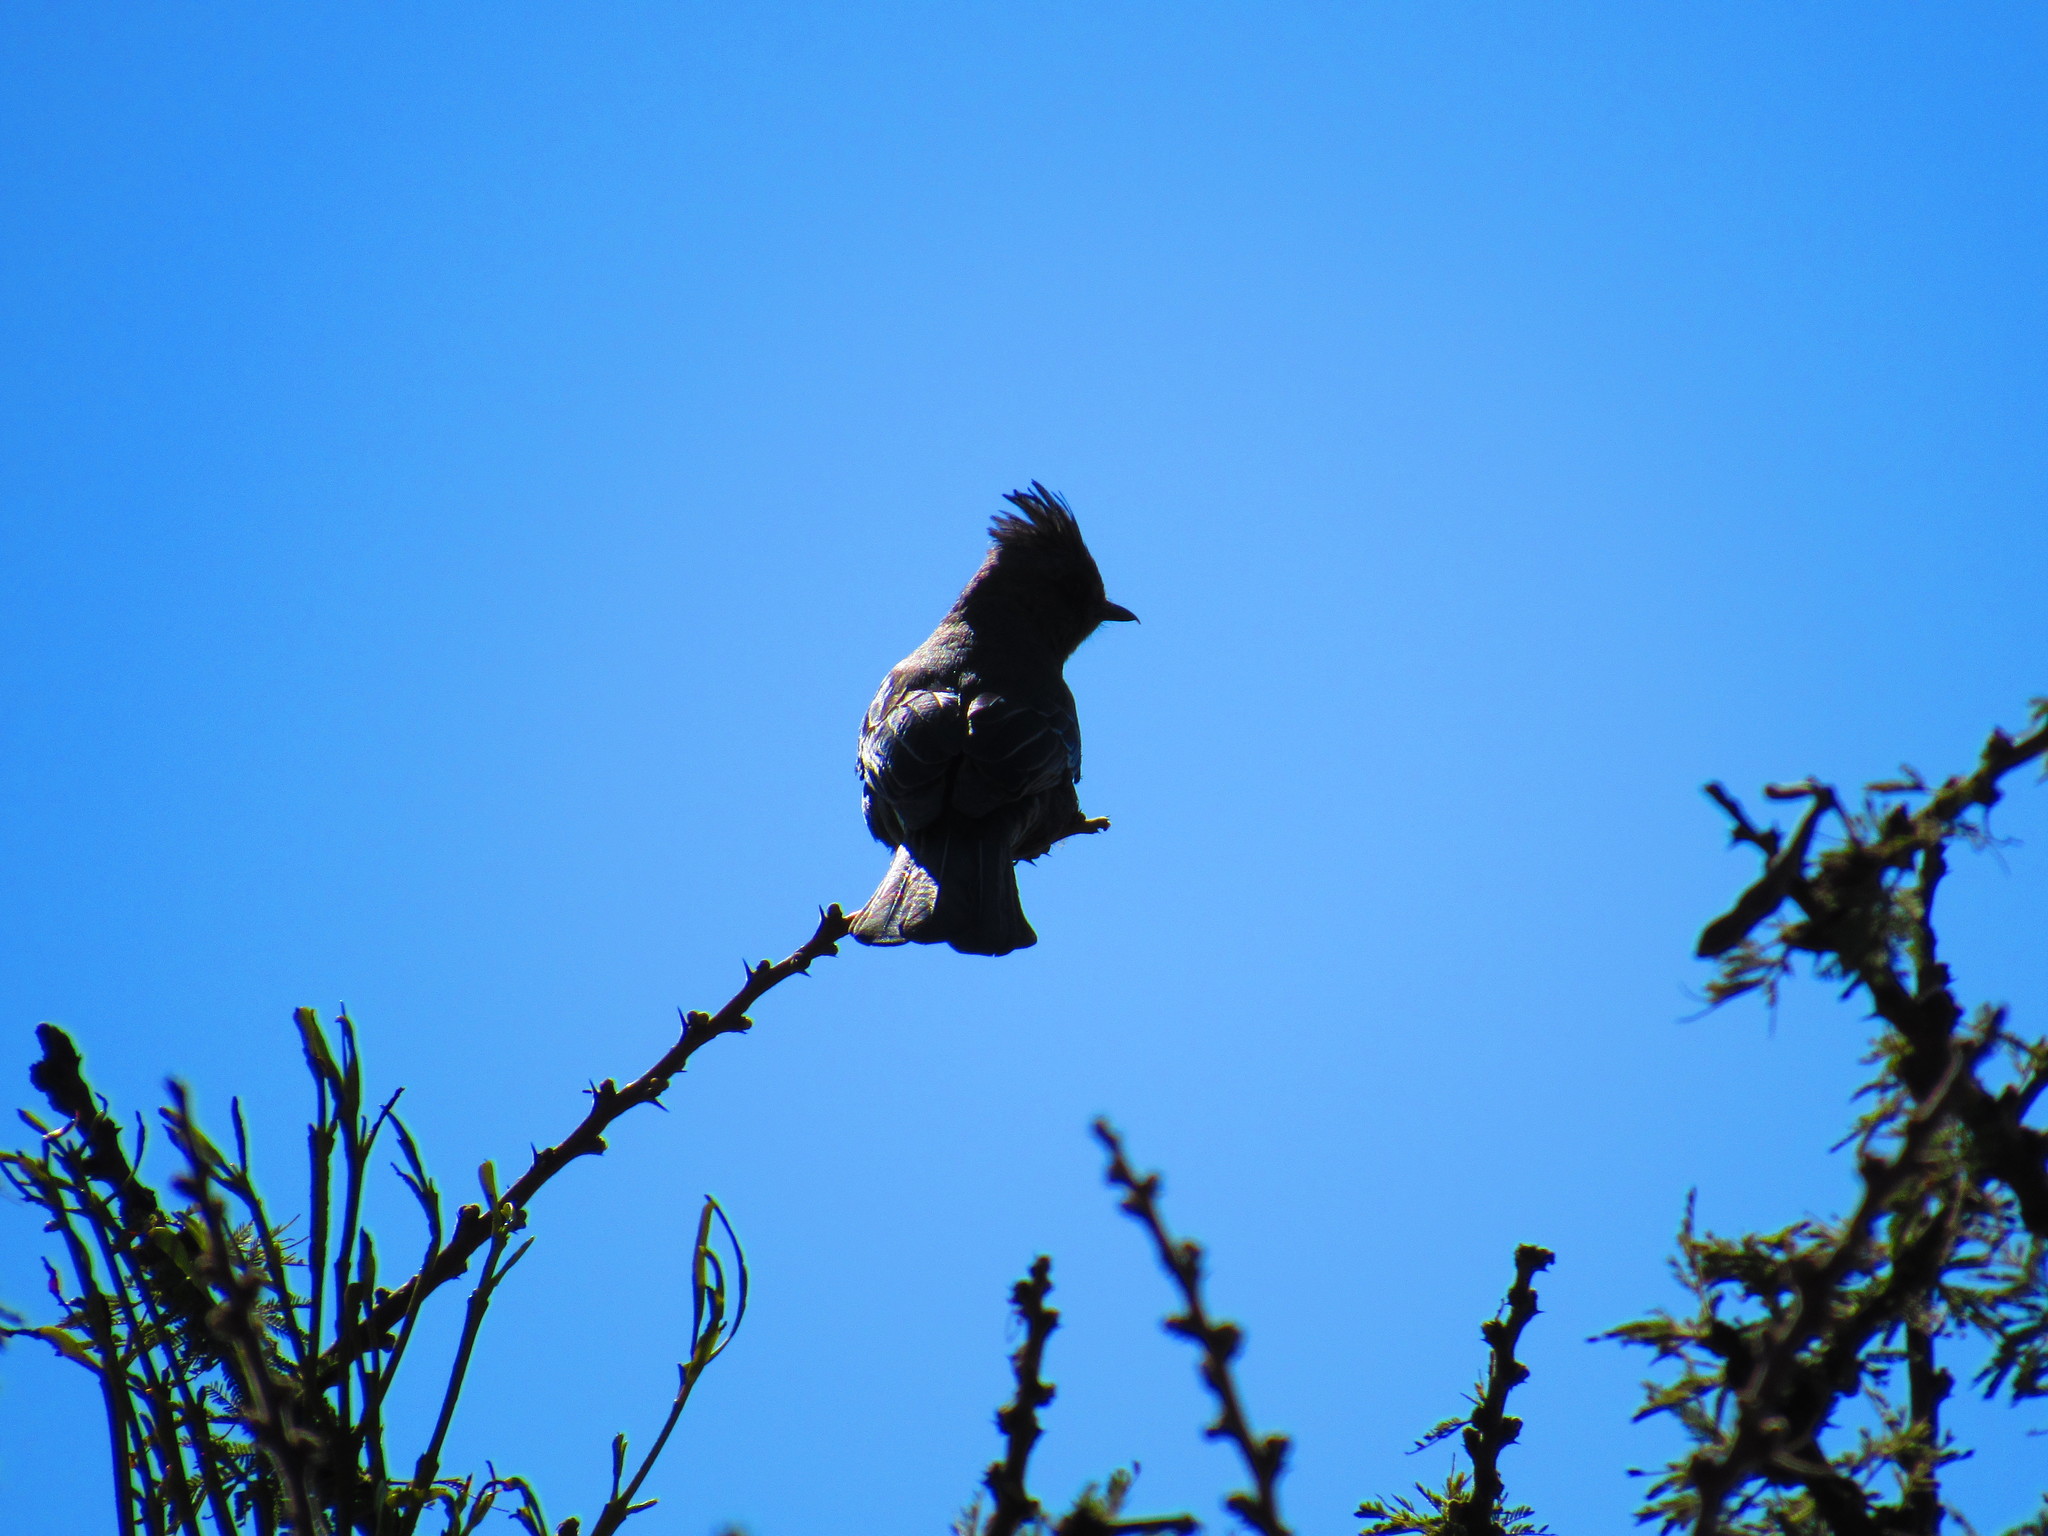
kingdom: Animalia
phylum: Chordata
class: Aves
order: Passeriformes
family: Ptilogonatidae
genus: Phainopepla
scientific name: Phainopepla nitens
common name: Phainopepla
